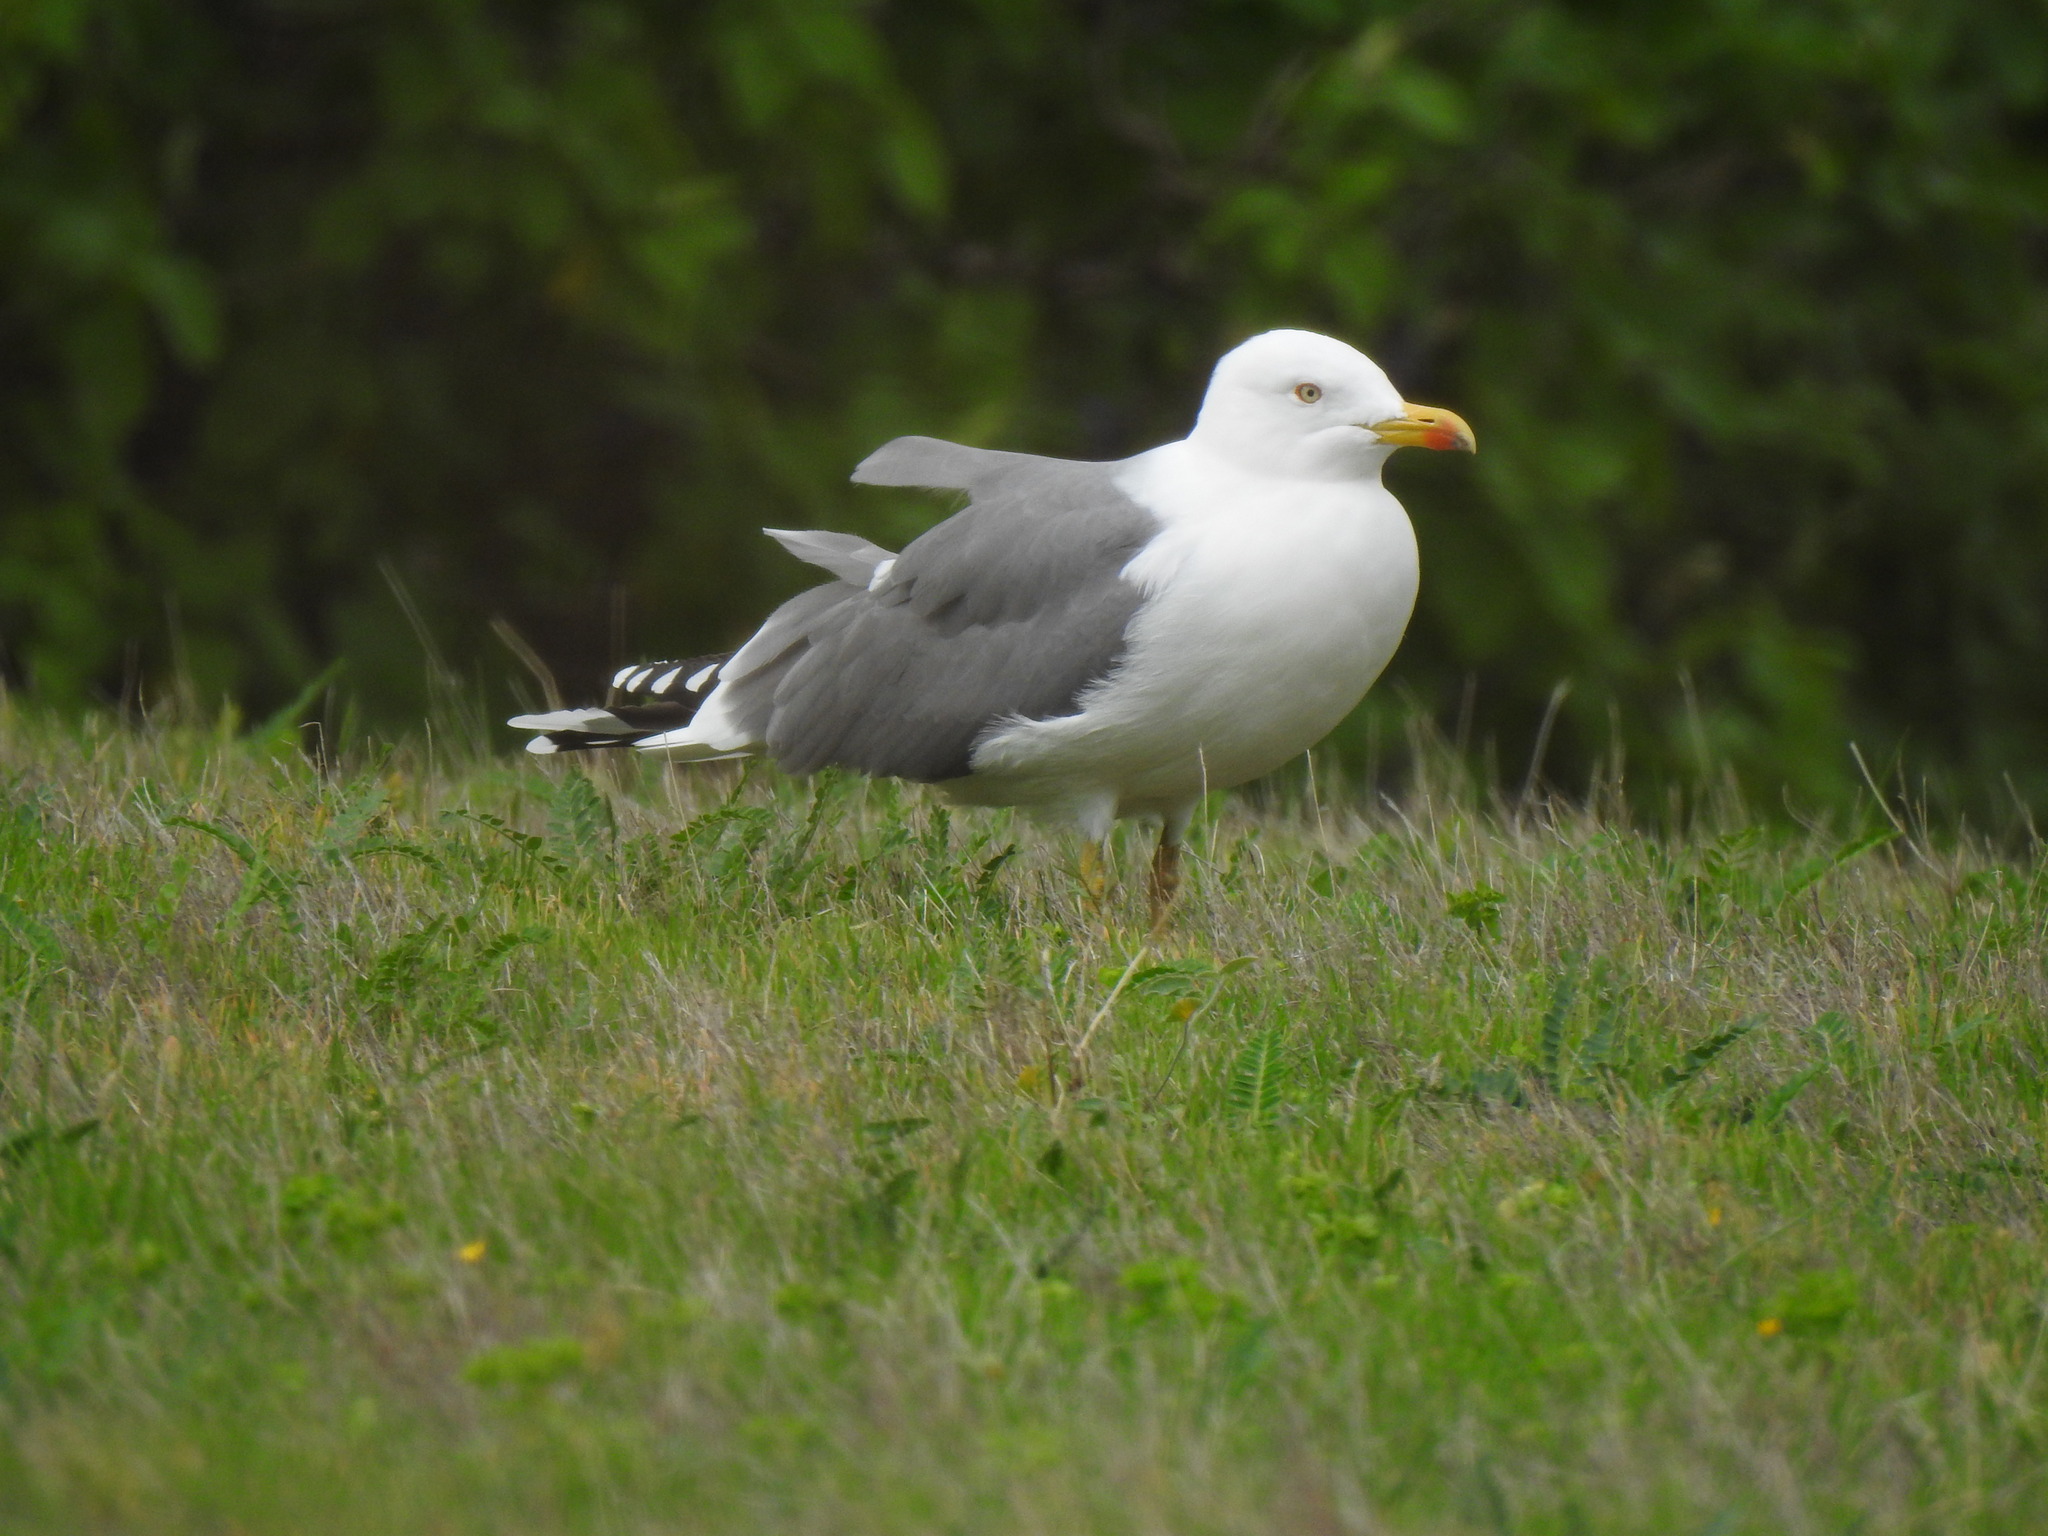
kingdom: Animalia
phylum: Chordata
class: Aves
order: Charadriiformes
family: Laridae
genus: Larus
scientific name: Larus michahellis
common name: Yellow-legged gull
